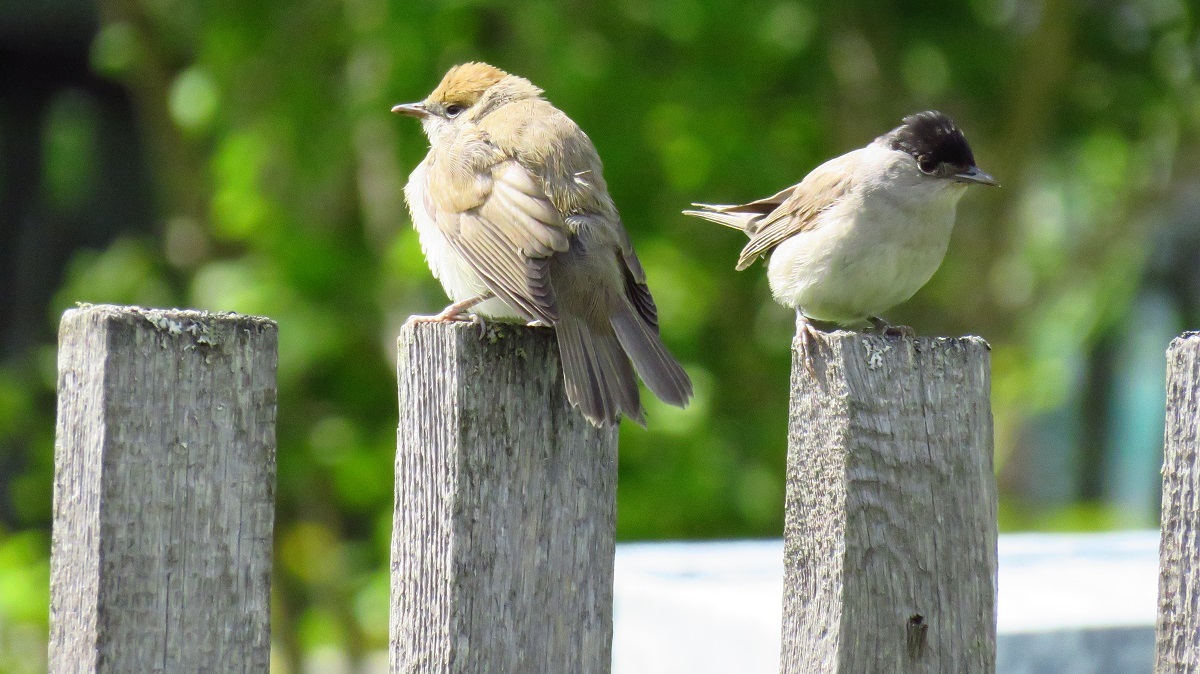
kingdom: Animalia
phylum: Chordata
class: Aves
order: Passeriformes
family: Sylviidae
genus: Sylvia
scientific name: Sylvia atricapilla
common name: Eurasian blackcap
